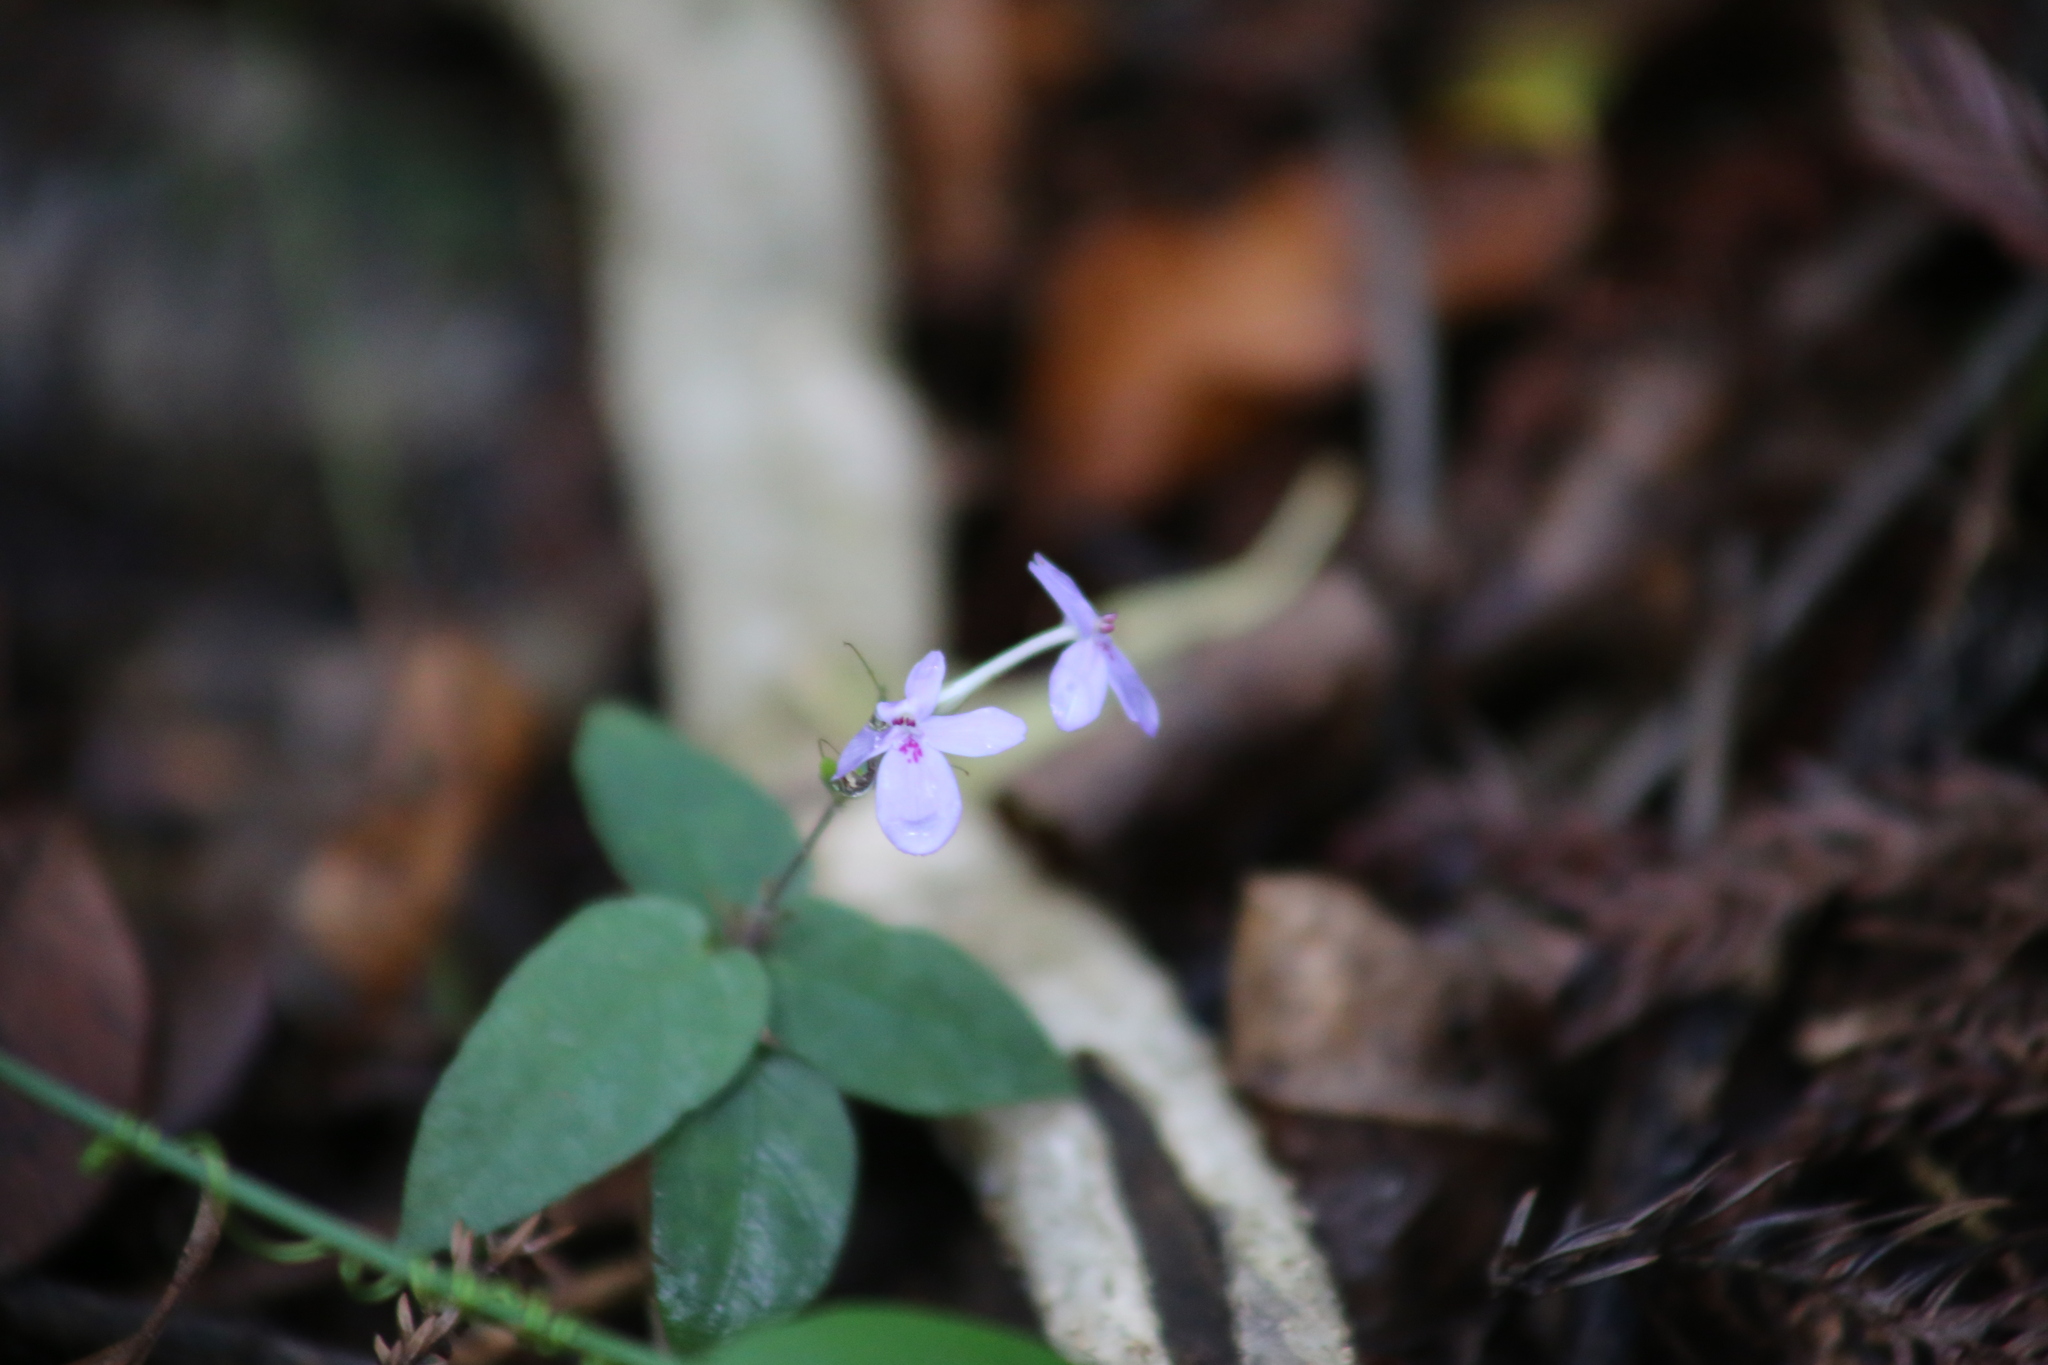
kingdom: Plantae
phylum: Tracheophyta
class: Magnoliopsida
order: Lamiales
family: Acanthaceae
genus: Pseuderanthemum
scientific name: Pseuderanthemum variabile
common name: Night and afternoon
